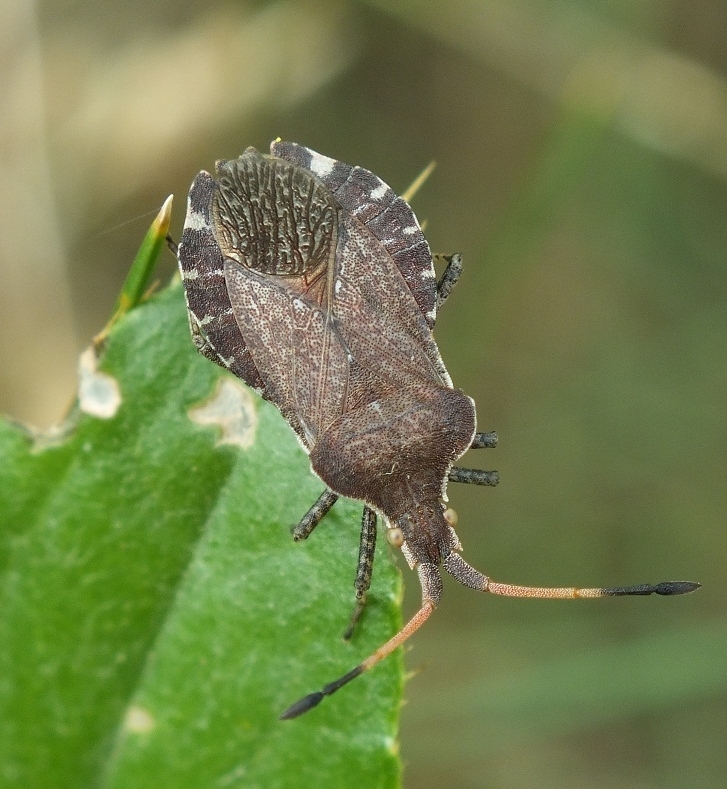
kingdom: Animalia
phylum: Arthropoda
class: Insecta
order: Hemiptera
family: Coreidae
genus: Enoplops
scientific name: Enoplops scapha
